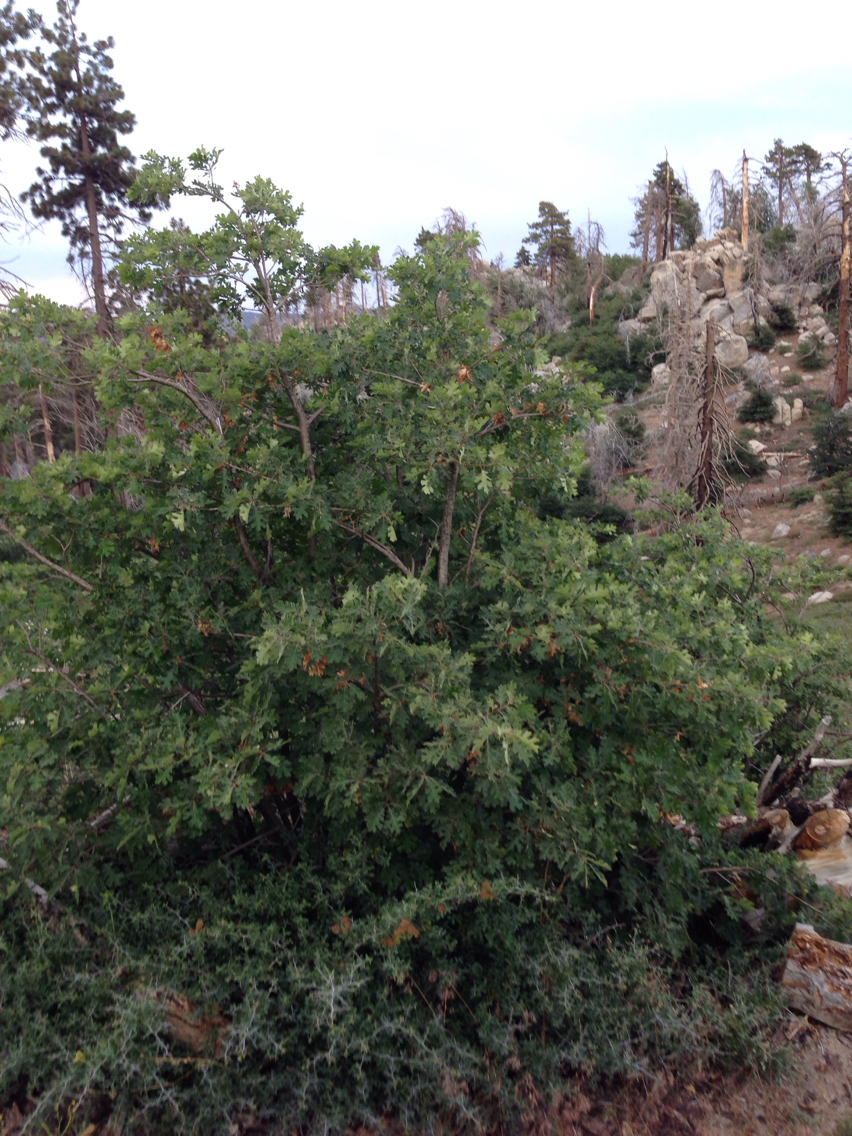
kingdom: Plantae
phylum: Tracheophyta
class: Magnoliopsida
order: Fagales
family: Fagaceae
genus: Quercus
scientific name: Quercus kelloggii
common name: California black oak
